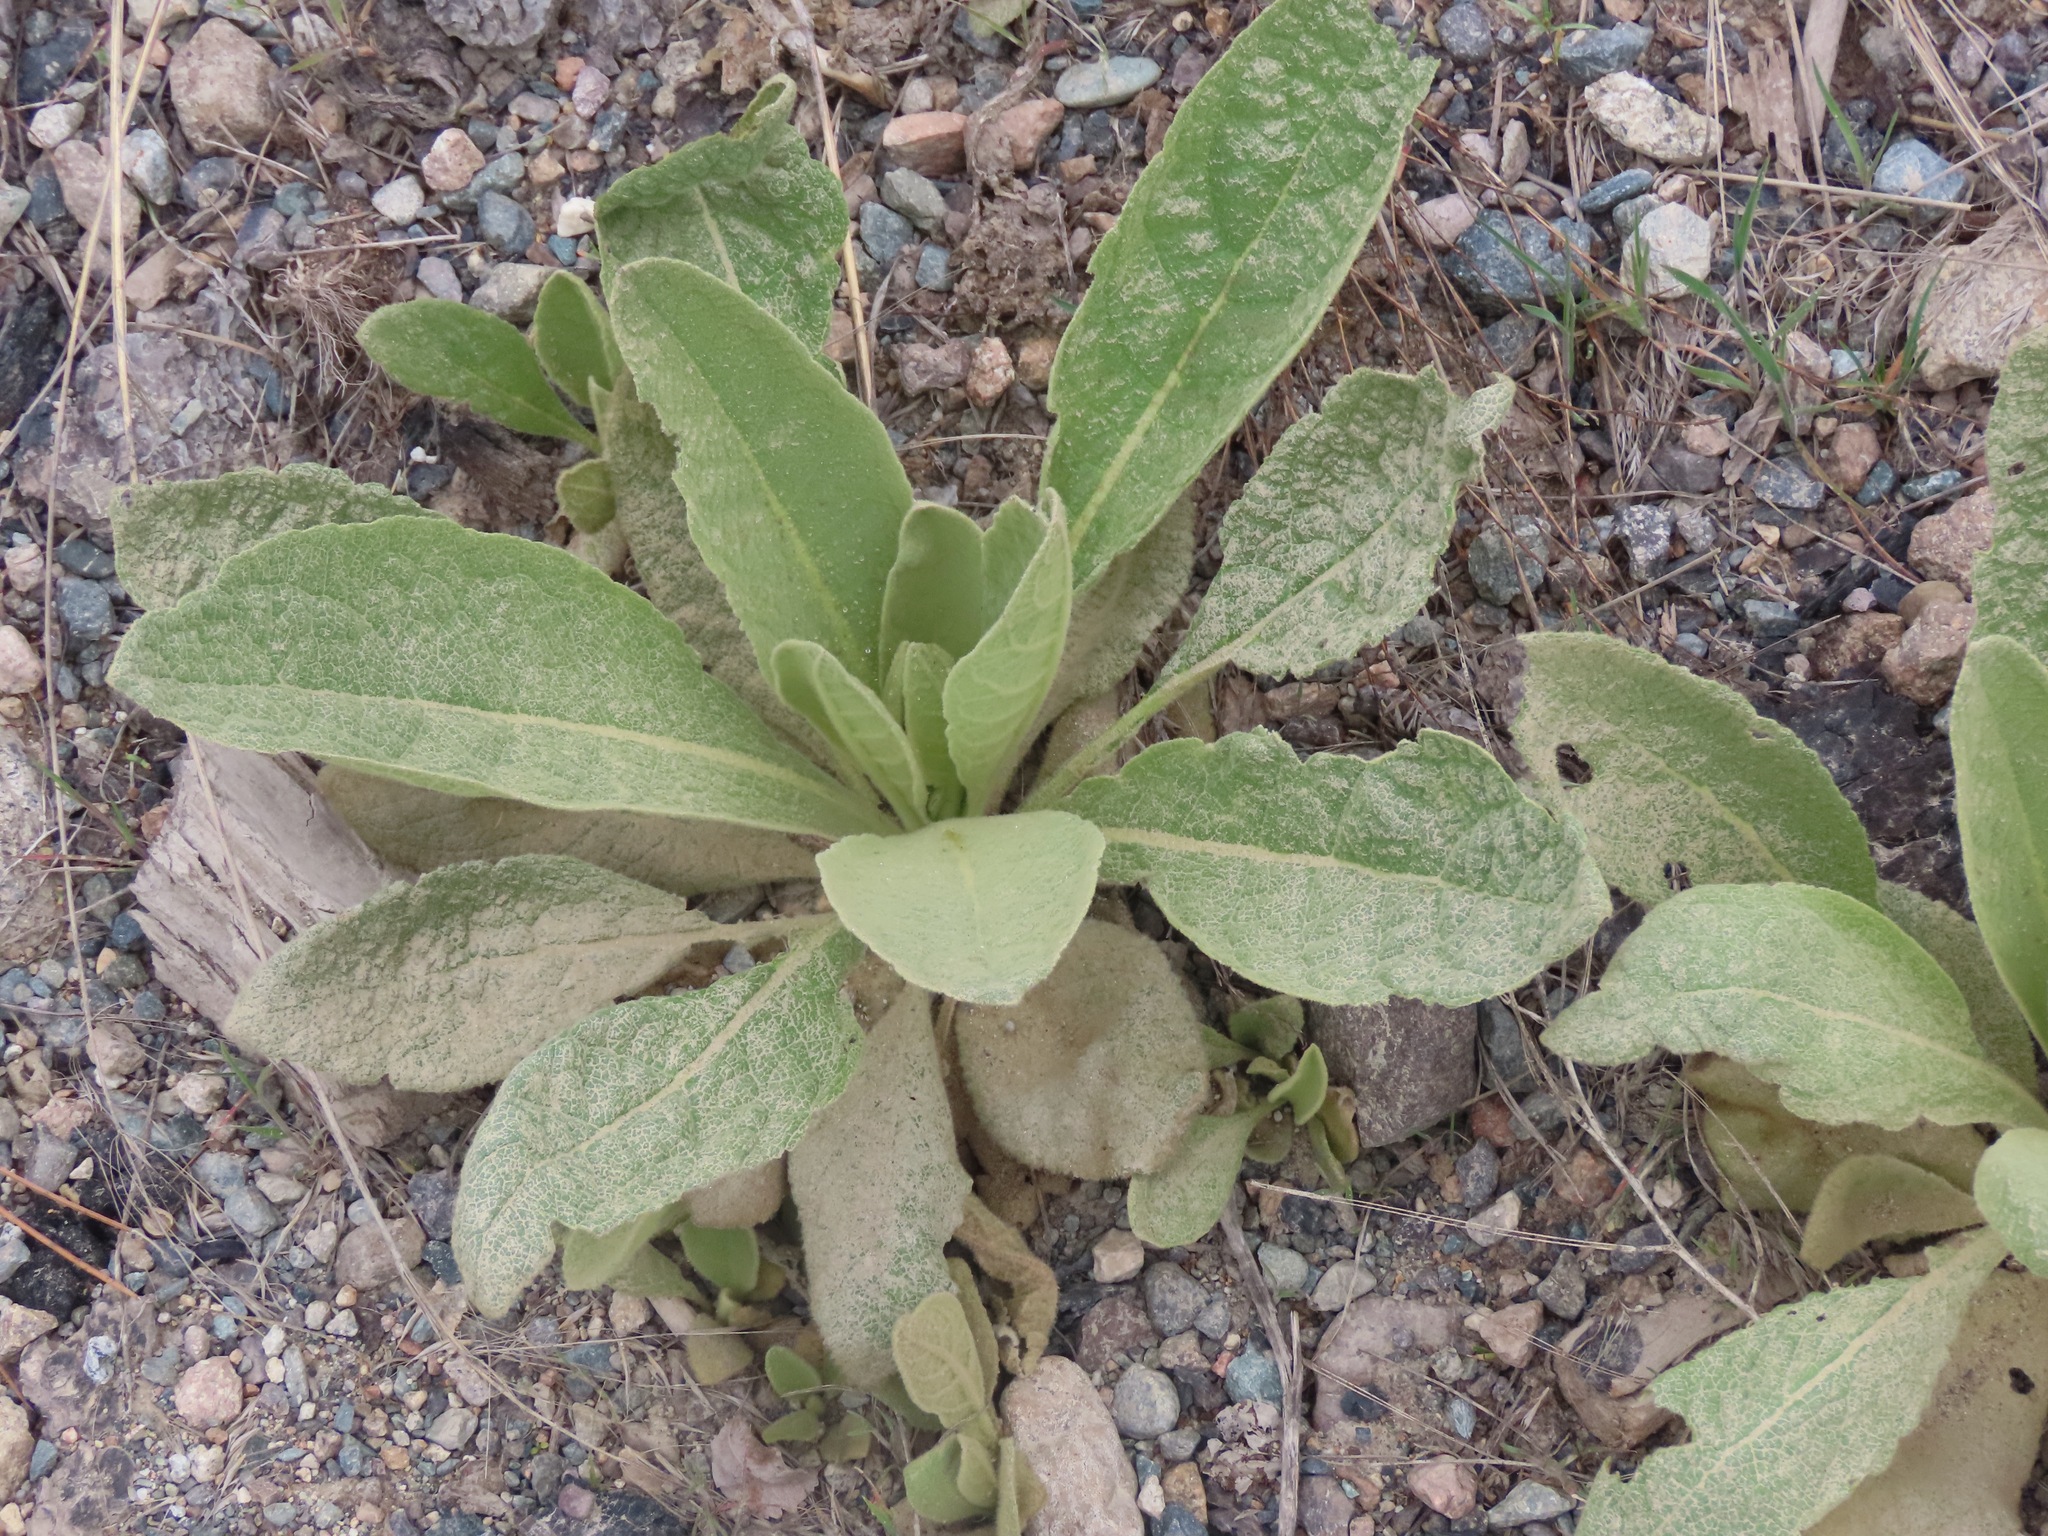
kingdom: Plantae
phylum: Tracheophyta
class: Magnoliopsida
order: Lamiales
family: Scrophulariaceae
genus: Verbascum
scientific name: Verbascum thapsus
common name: Common mullein
